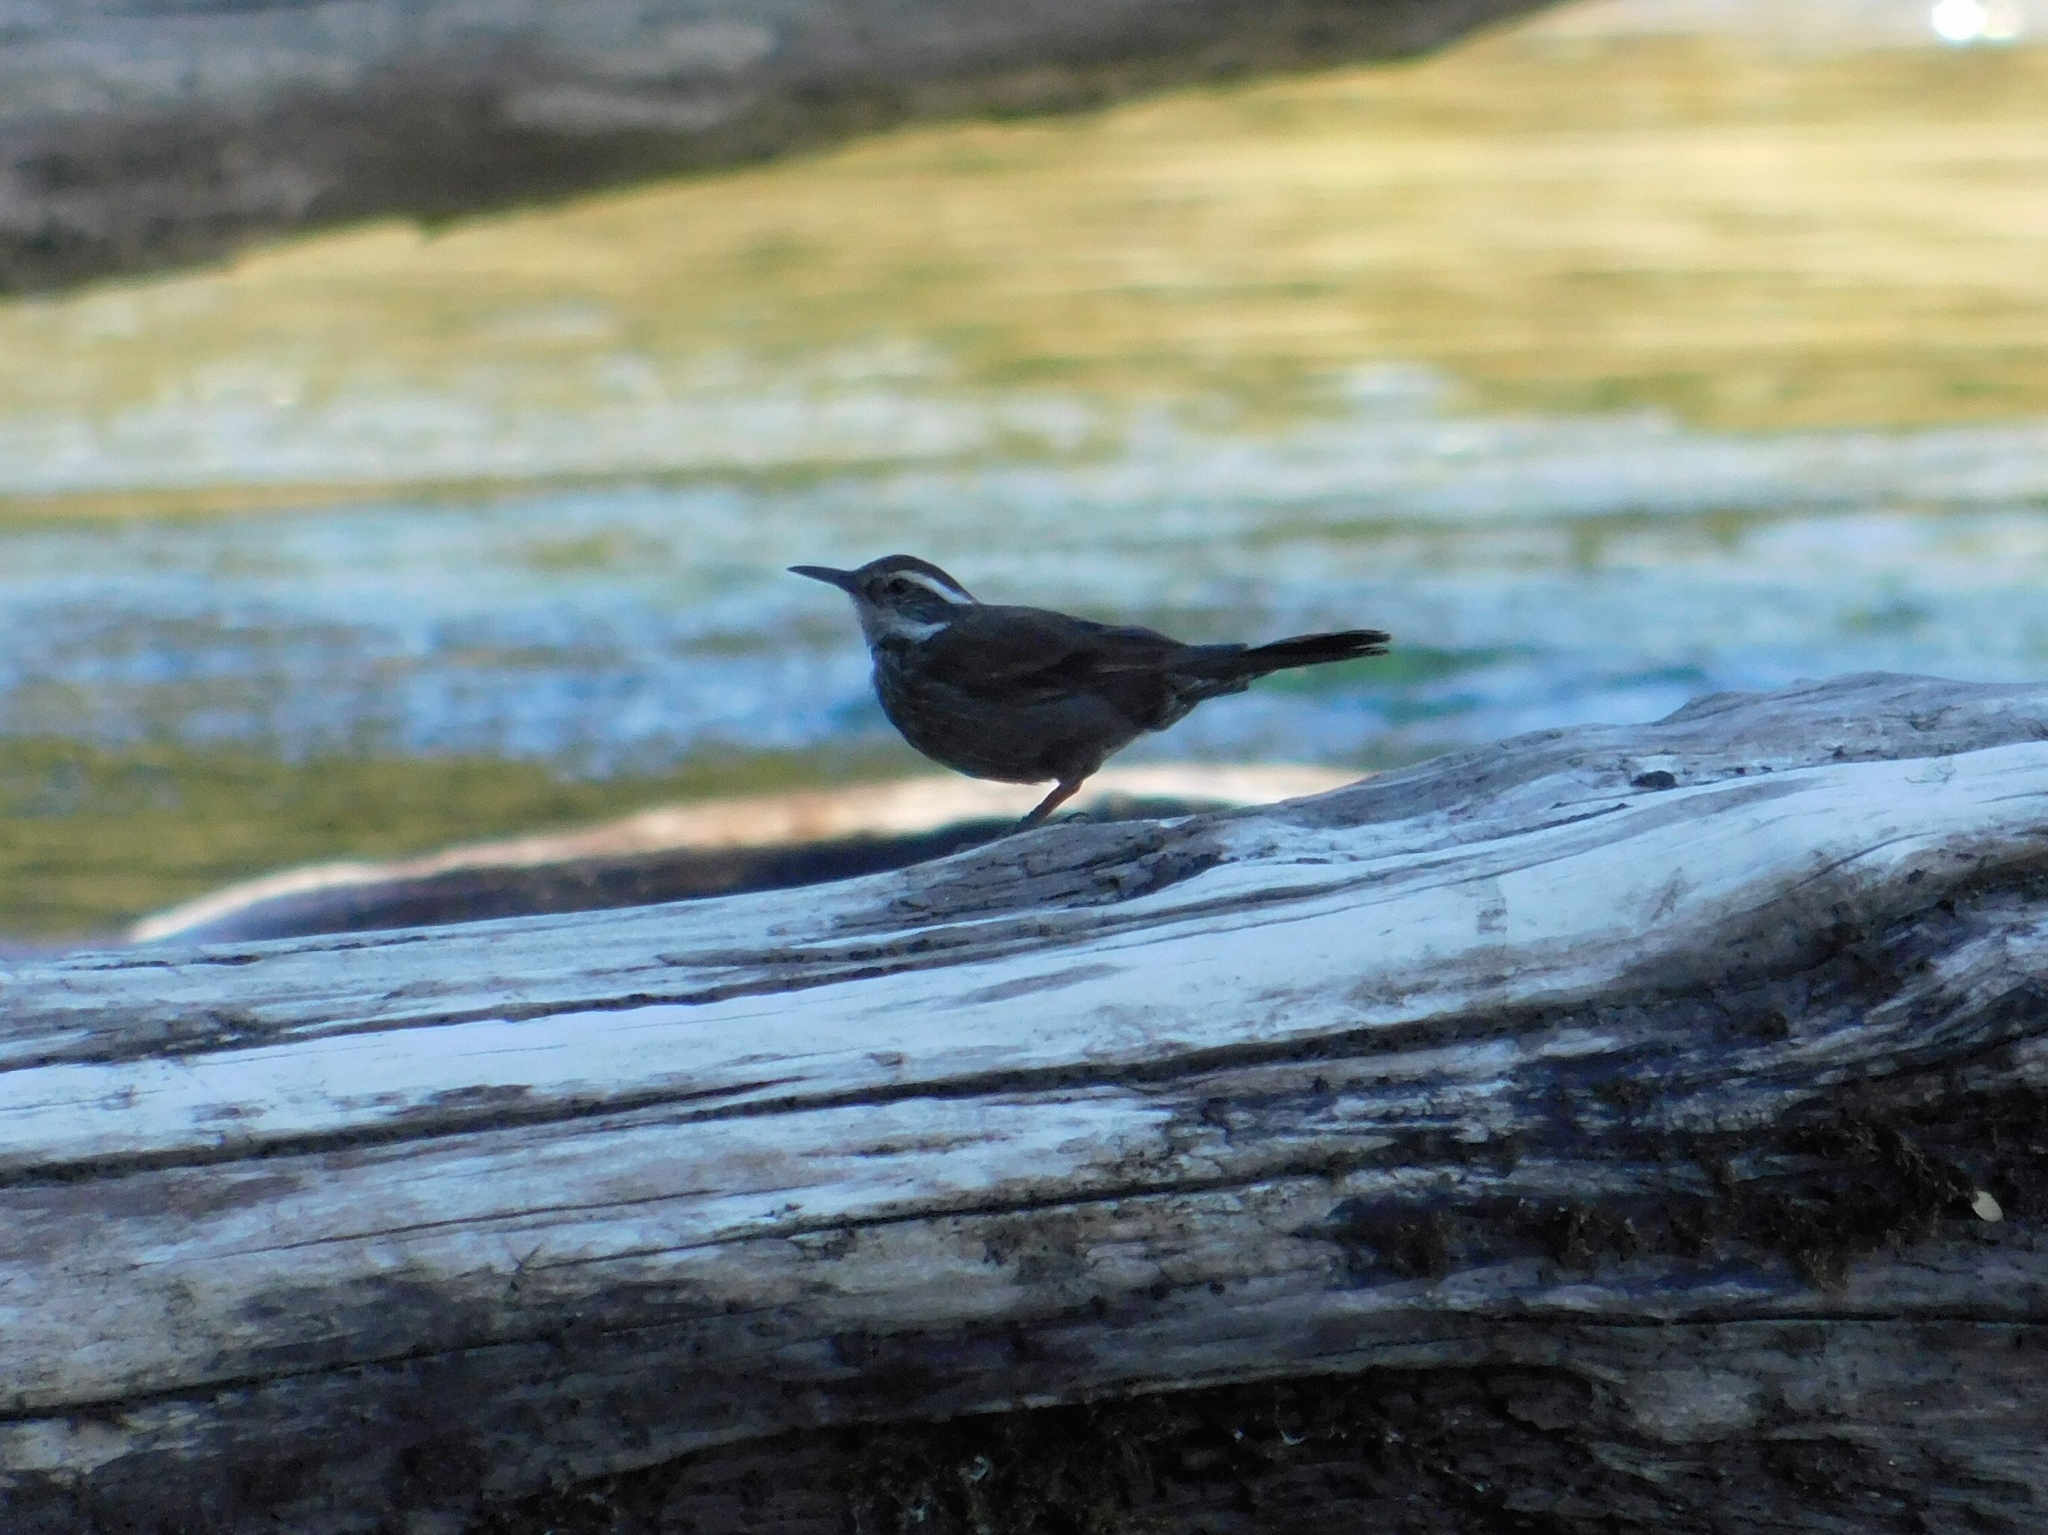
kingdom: Animalia
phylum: Chordata
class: Aves
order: Passeriformes
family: Furnariidae
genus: Cinclodes
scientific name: Cinclodes patagonicus
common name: Dark-bellied cinclodes
